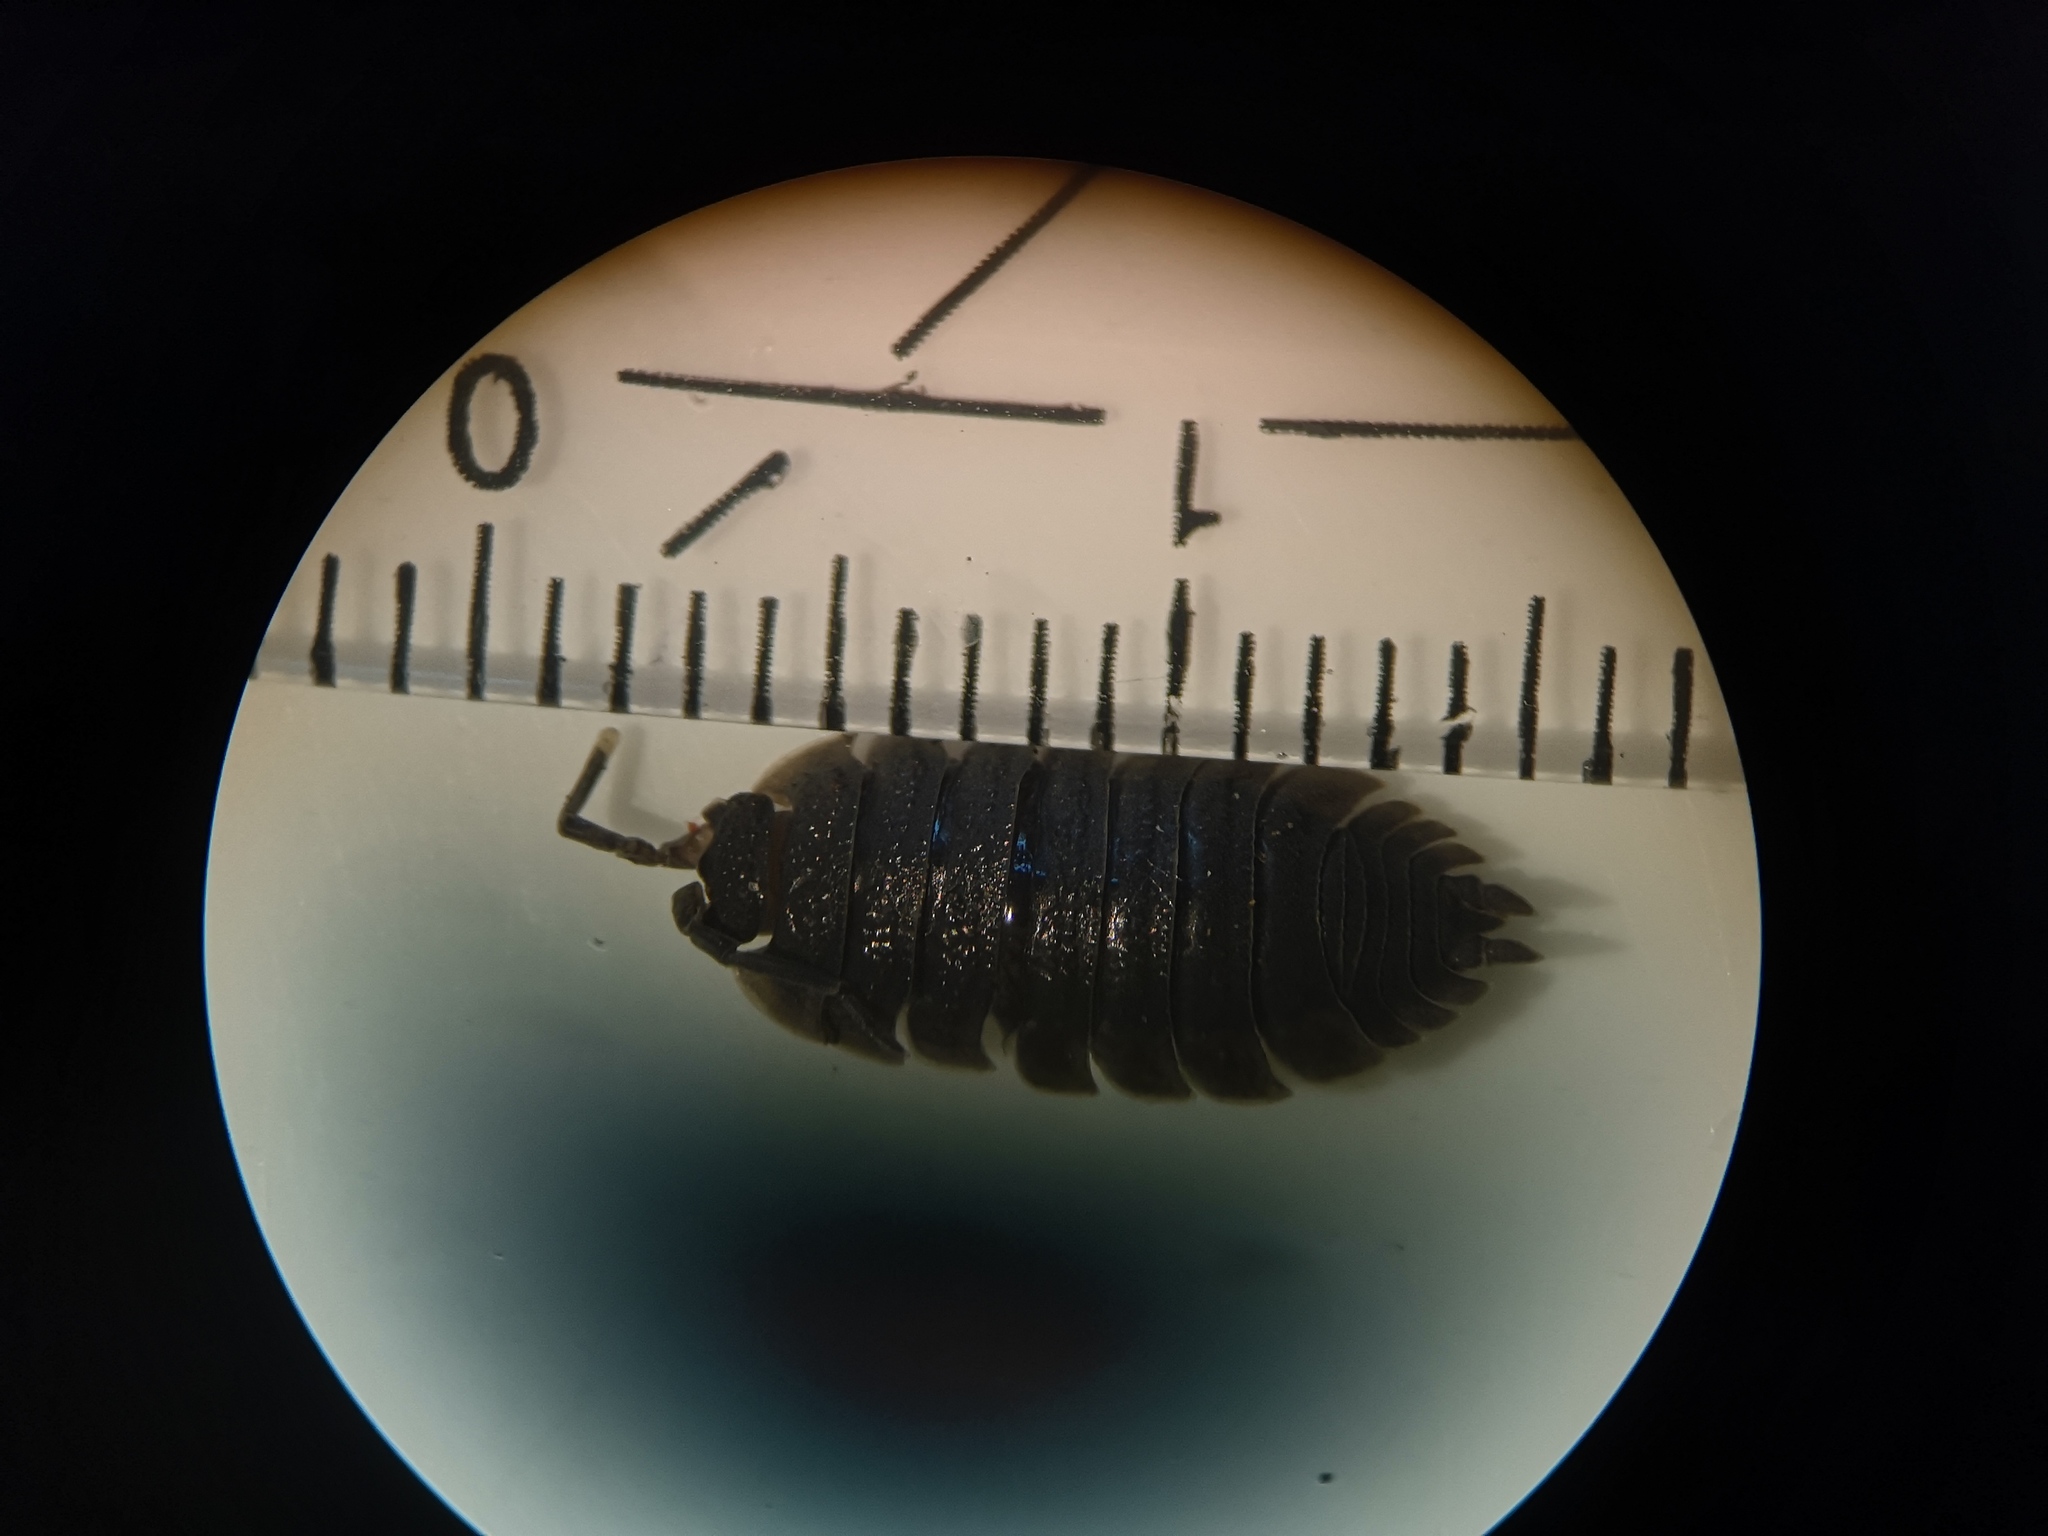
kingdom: Animalia
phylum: Arthropoda
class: Malacostraca
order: Isopoda
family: Porcellionidae
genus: Porcellio
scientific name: Porcellio scaber
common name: Common rough woodlouse
